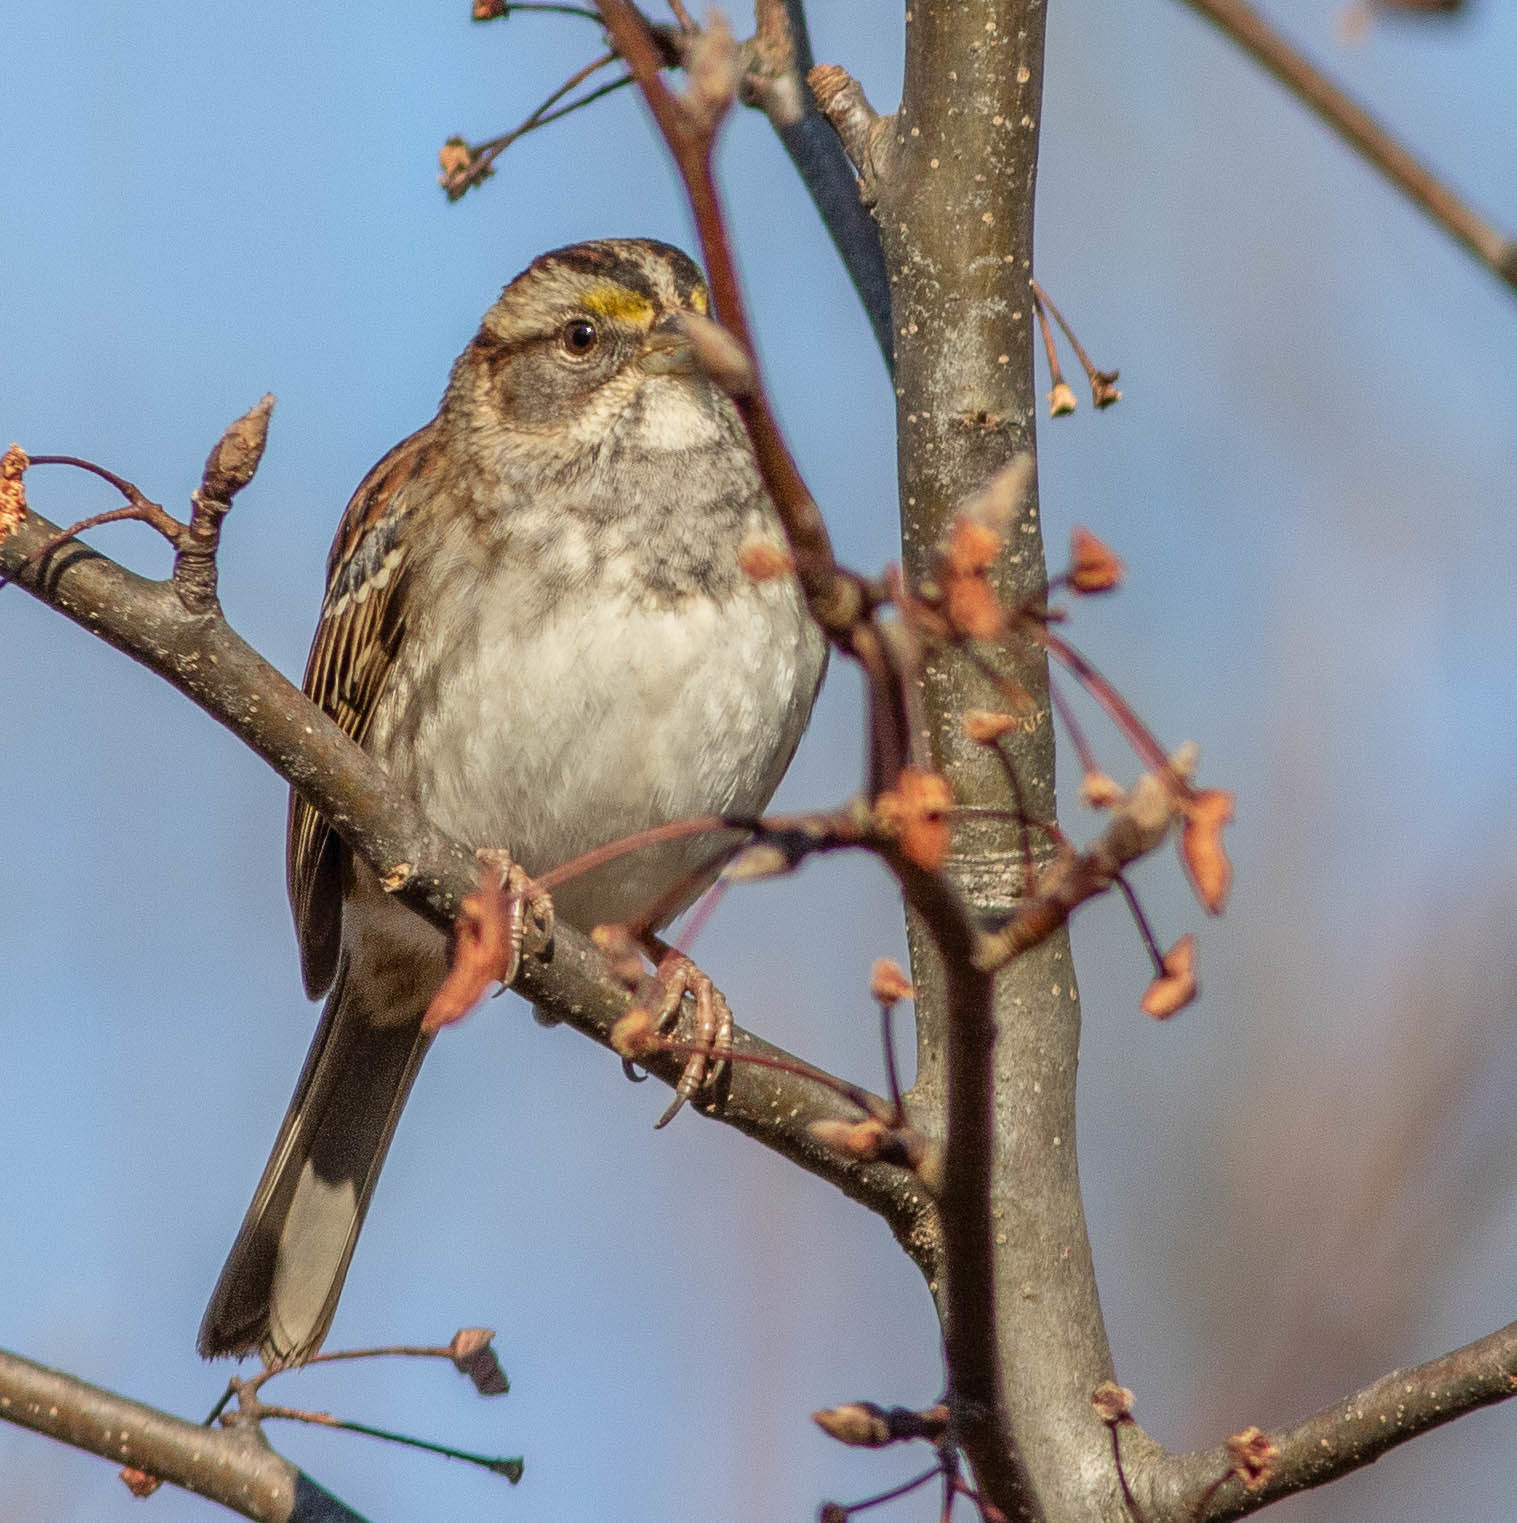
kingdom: Animalia
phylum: Chordata
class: Aves
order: Passeriformes
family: Passerellidae
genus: Zonotrichia
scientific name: Zonotrichia albicollis
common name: White-throated sparrow
